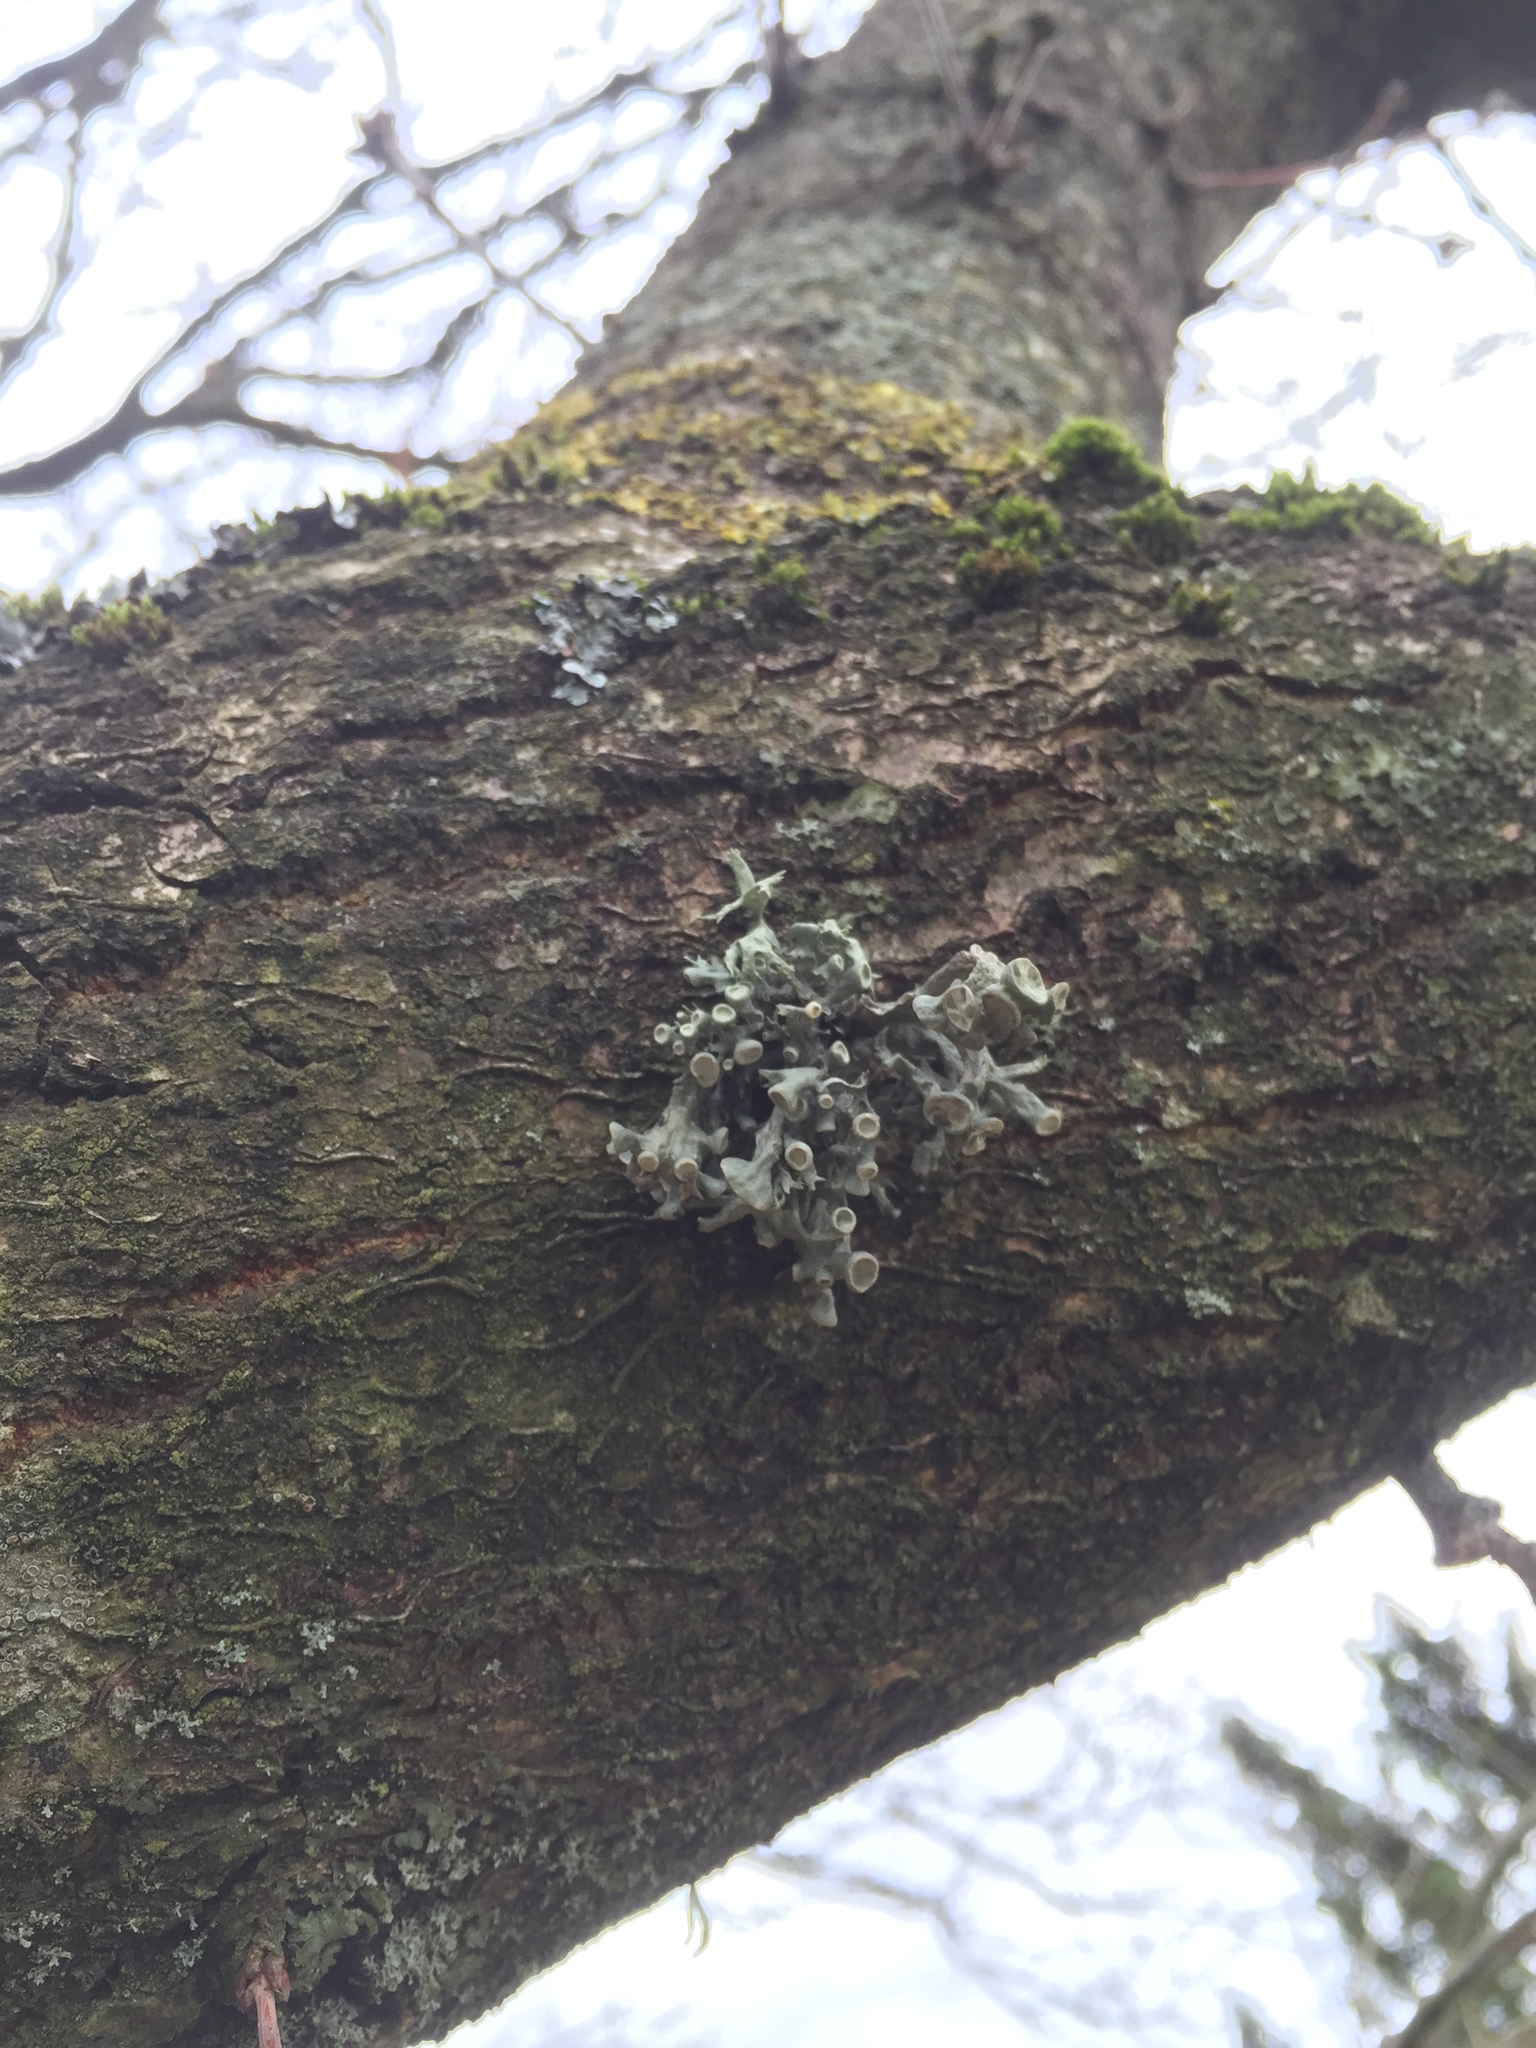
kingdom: Fungi
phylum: Ascomycota
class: Lecanoromycetes
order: Lecanorales
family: Ramalinaceae
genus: Ramalina
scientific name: Ramalina fastigiata
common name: Dotted ribbon lichen
